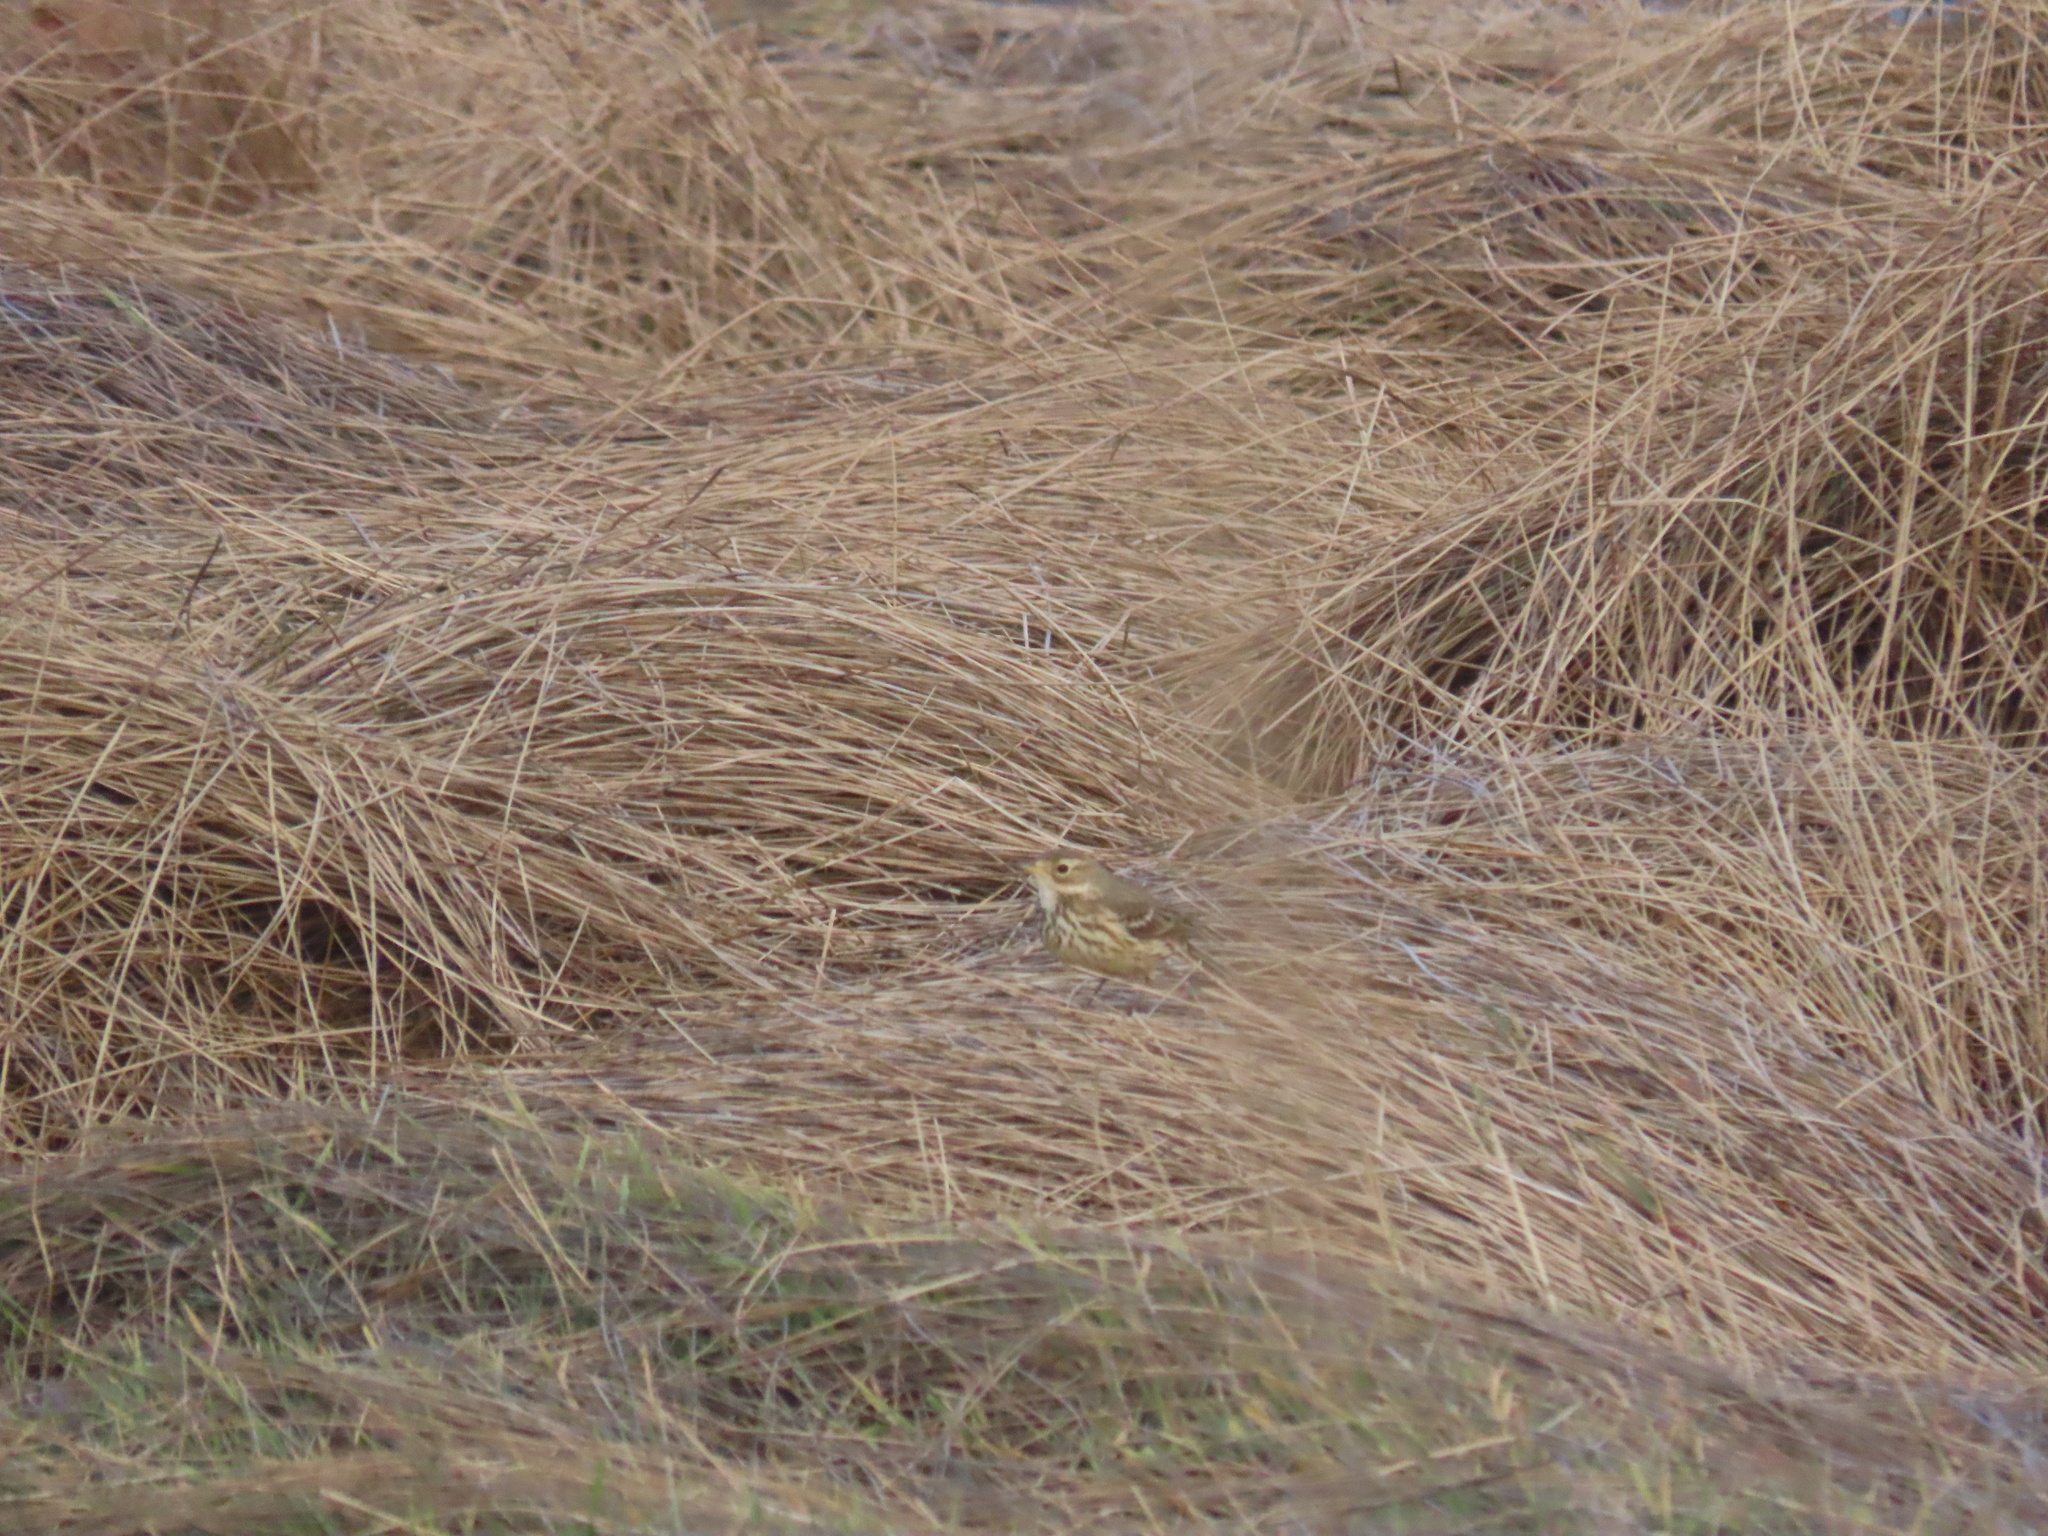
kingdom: Animalia
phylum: Chordata
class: Aves
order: Passeriformes
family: Motacillidae
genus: Anthus
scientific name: Anthus rubescens
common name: Buff-bellied pipit
